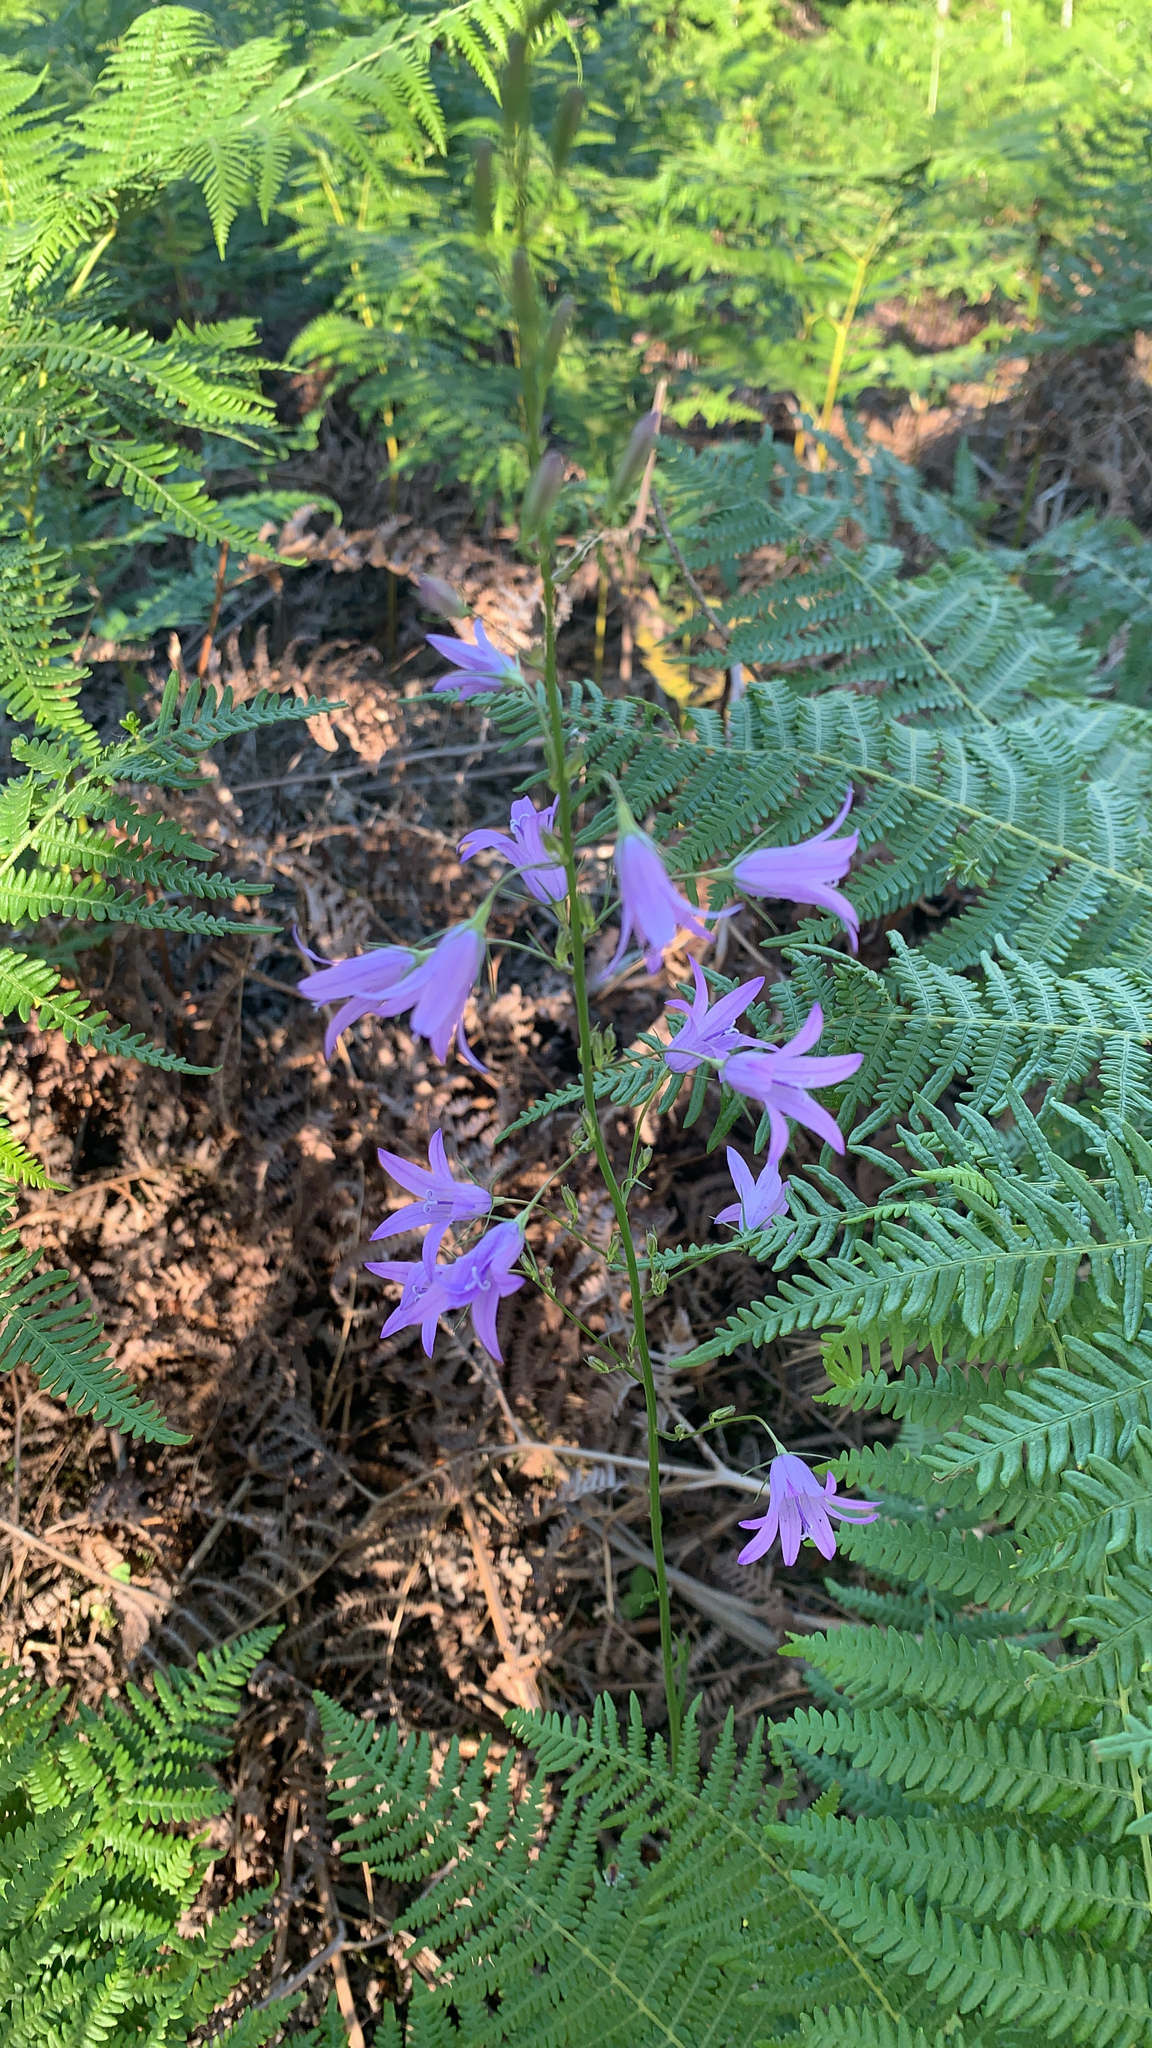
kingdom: Plantae
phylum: Tracheophyta
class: Magnoliopsida
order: Asterales
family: Campanulaceae
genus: Campanula
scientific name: Campanula rapunculus
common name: Rampion bellflower
